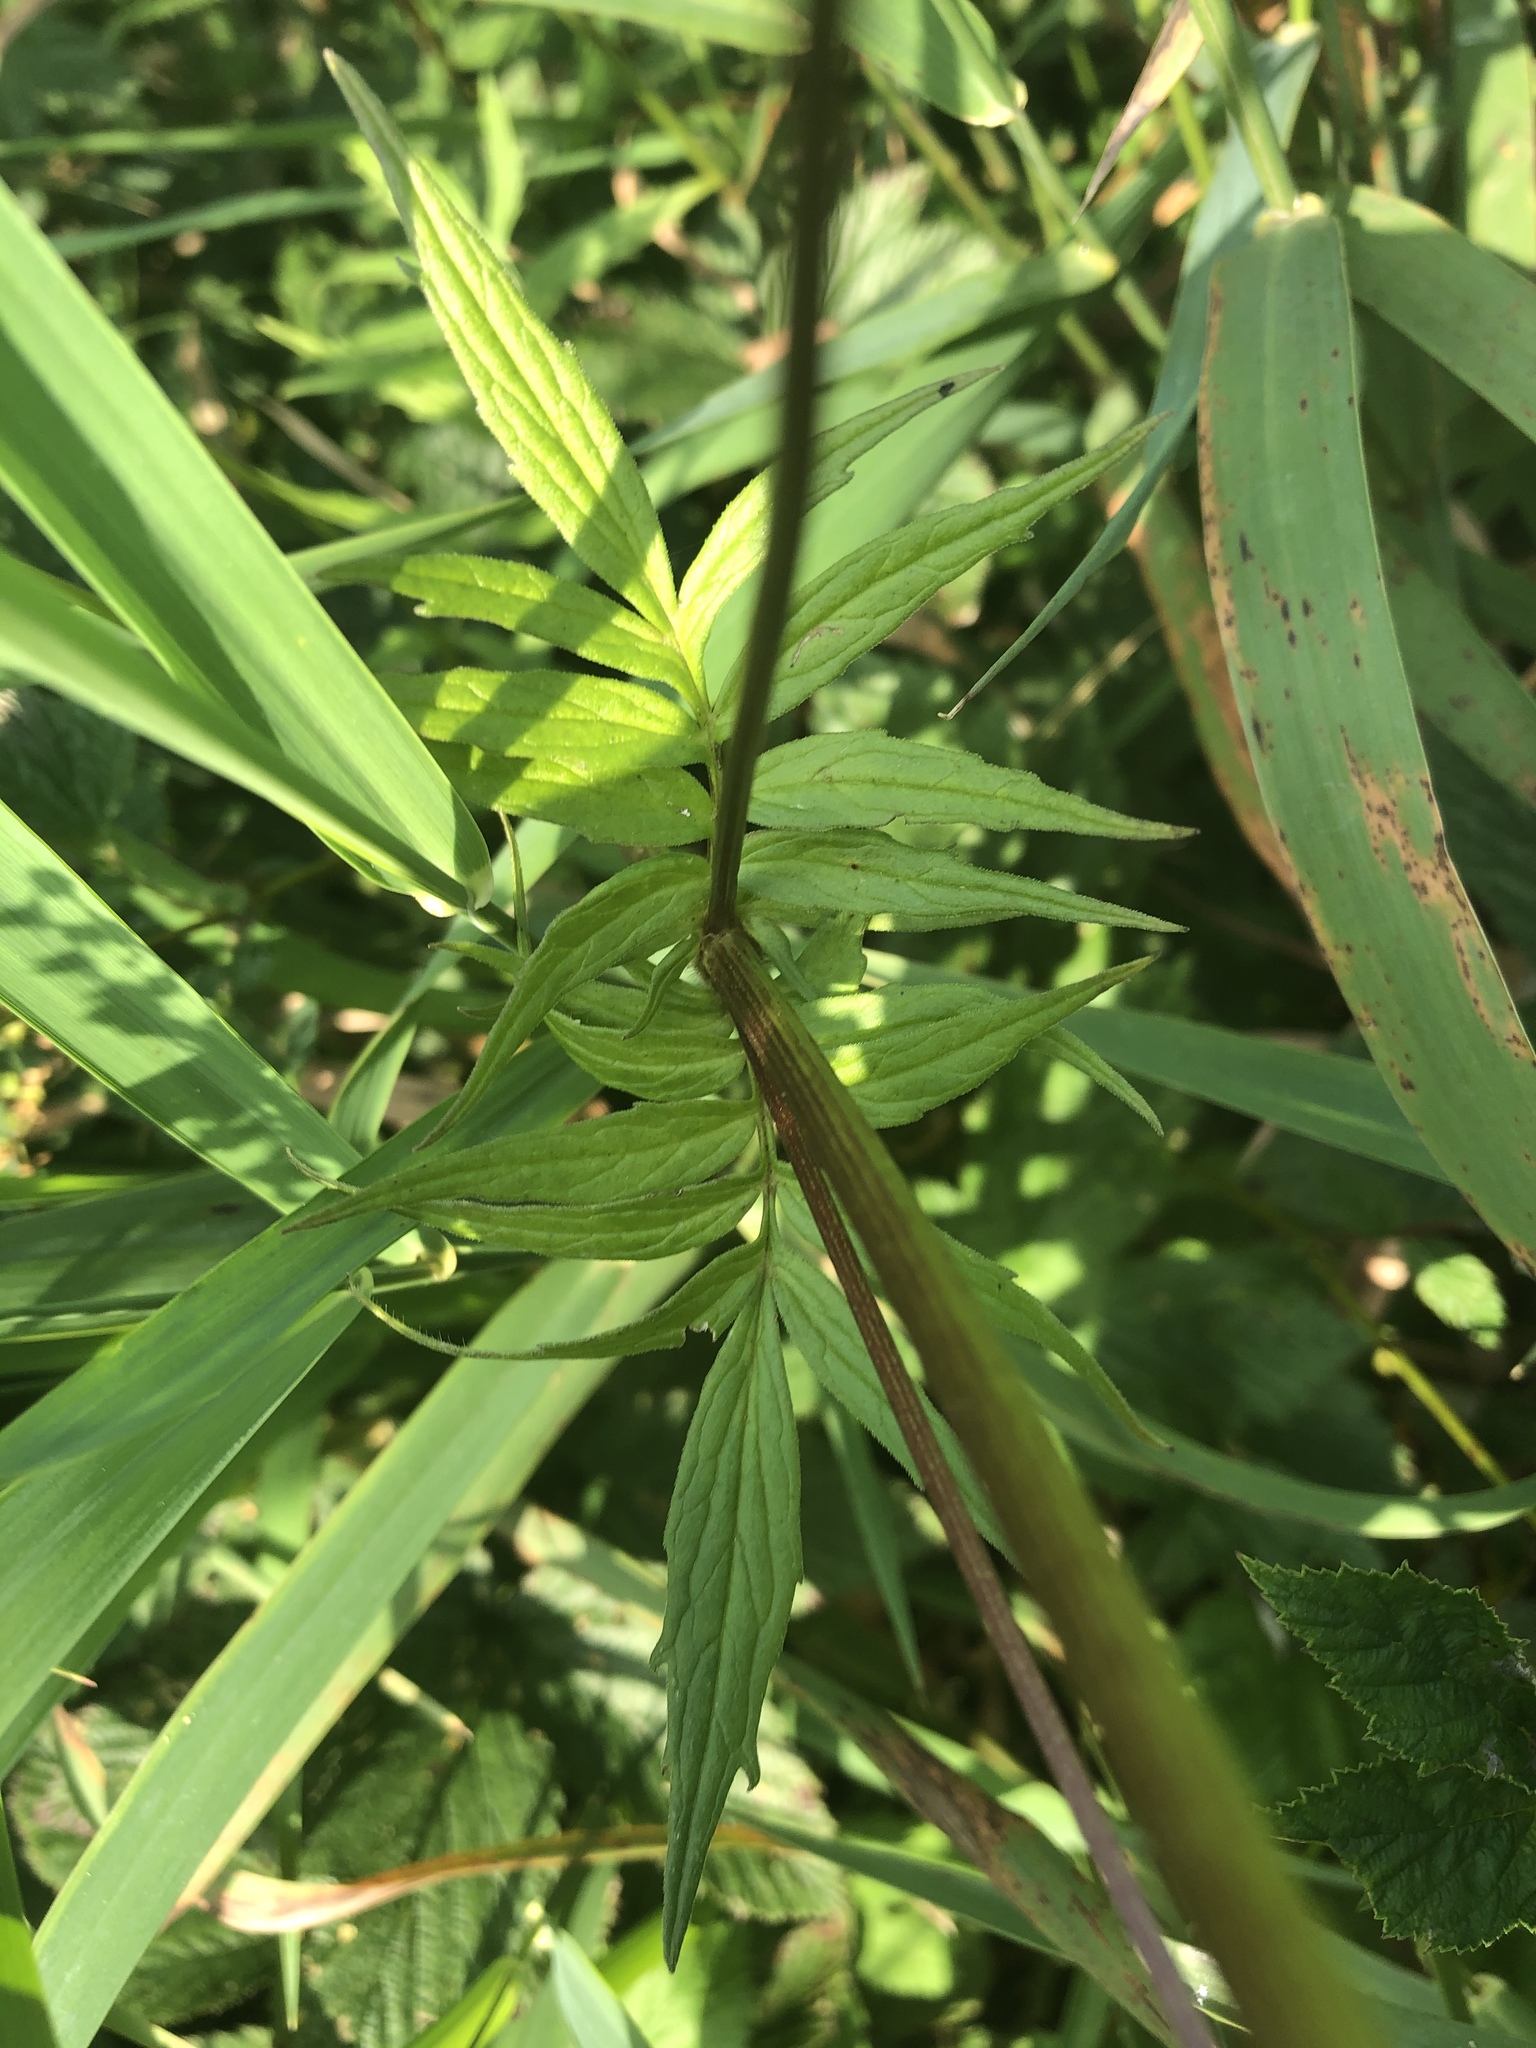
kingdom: Plantae
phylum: Tracheophyta
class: Magnoliopsida
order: Dipsacales
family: Caprifoliaceae
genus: Valeriana
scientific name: Valeriana officinalis
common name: Common valerian
